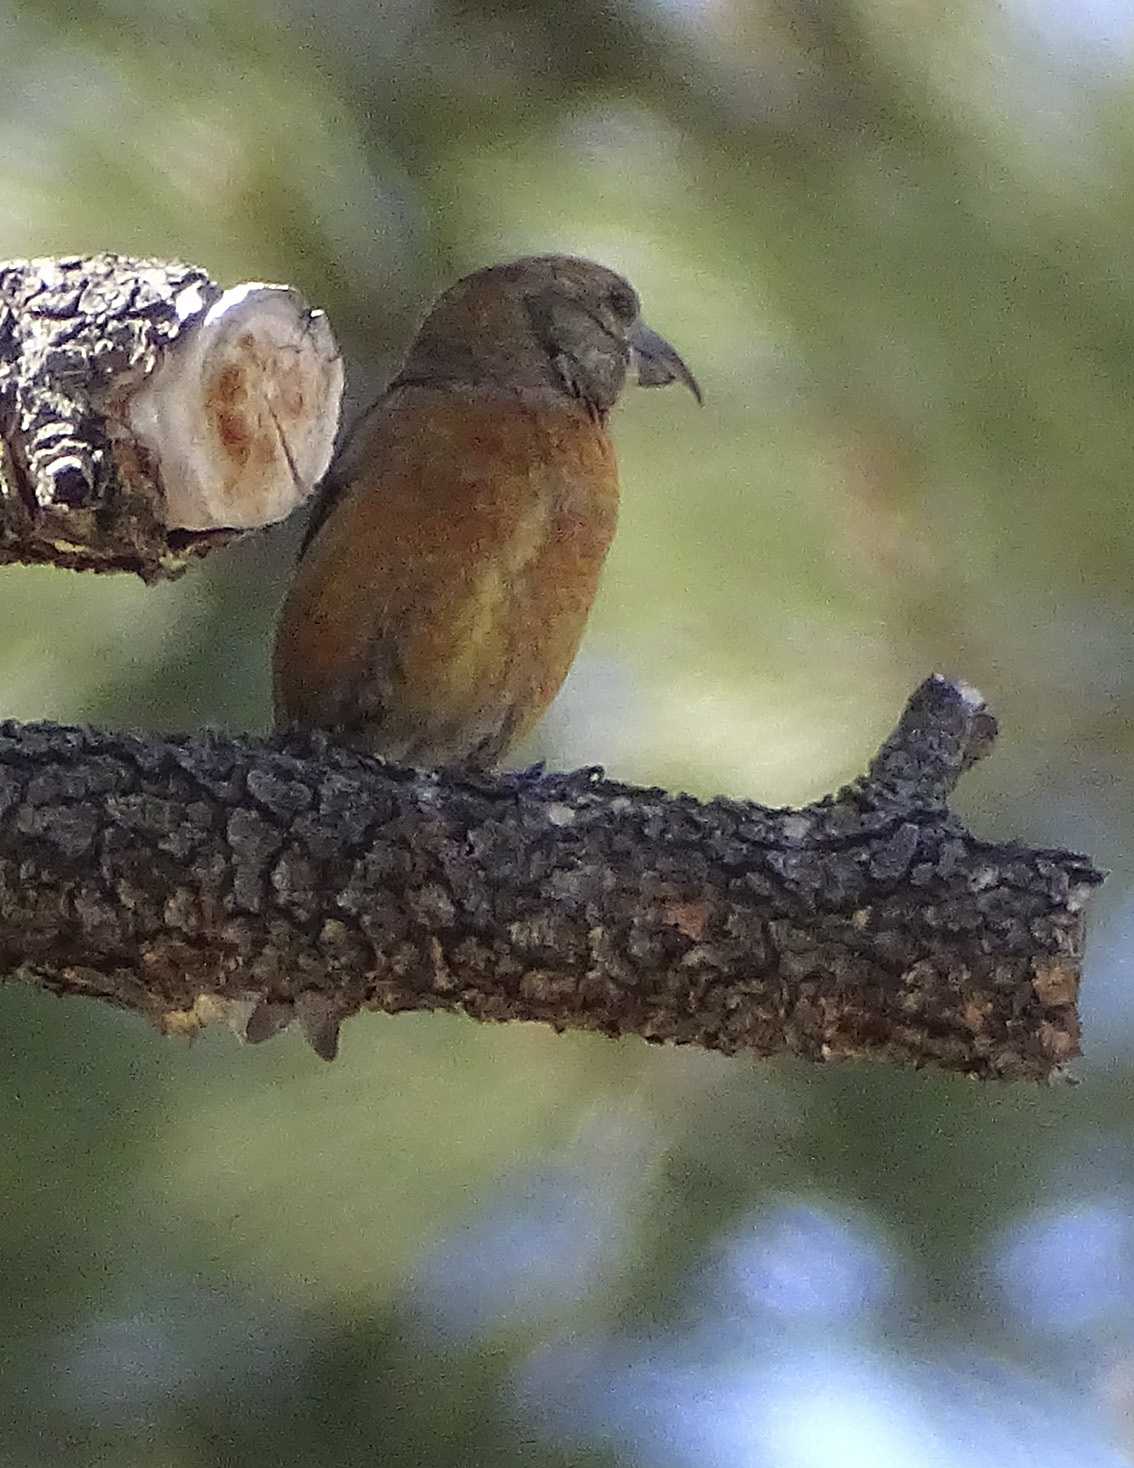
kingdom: Animalia
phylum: Chordata
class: Aves
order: Passeriformes
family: Fringillidae
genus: Loxia
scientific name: Loxia curvirostra
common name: Red crossbill
